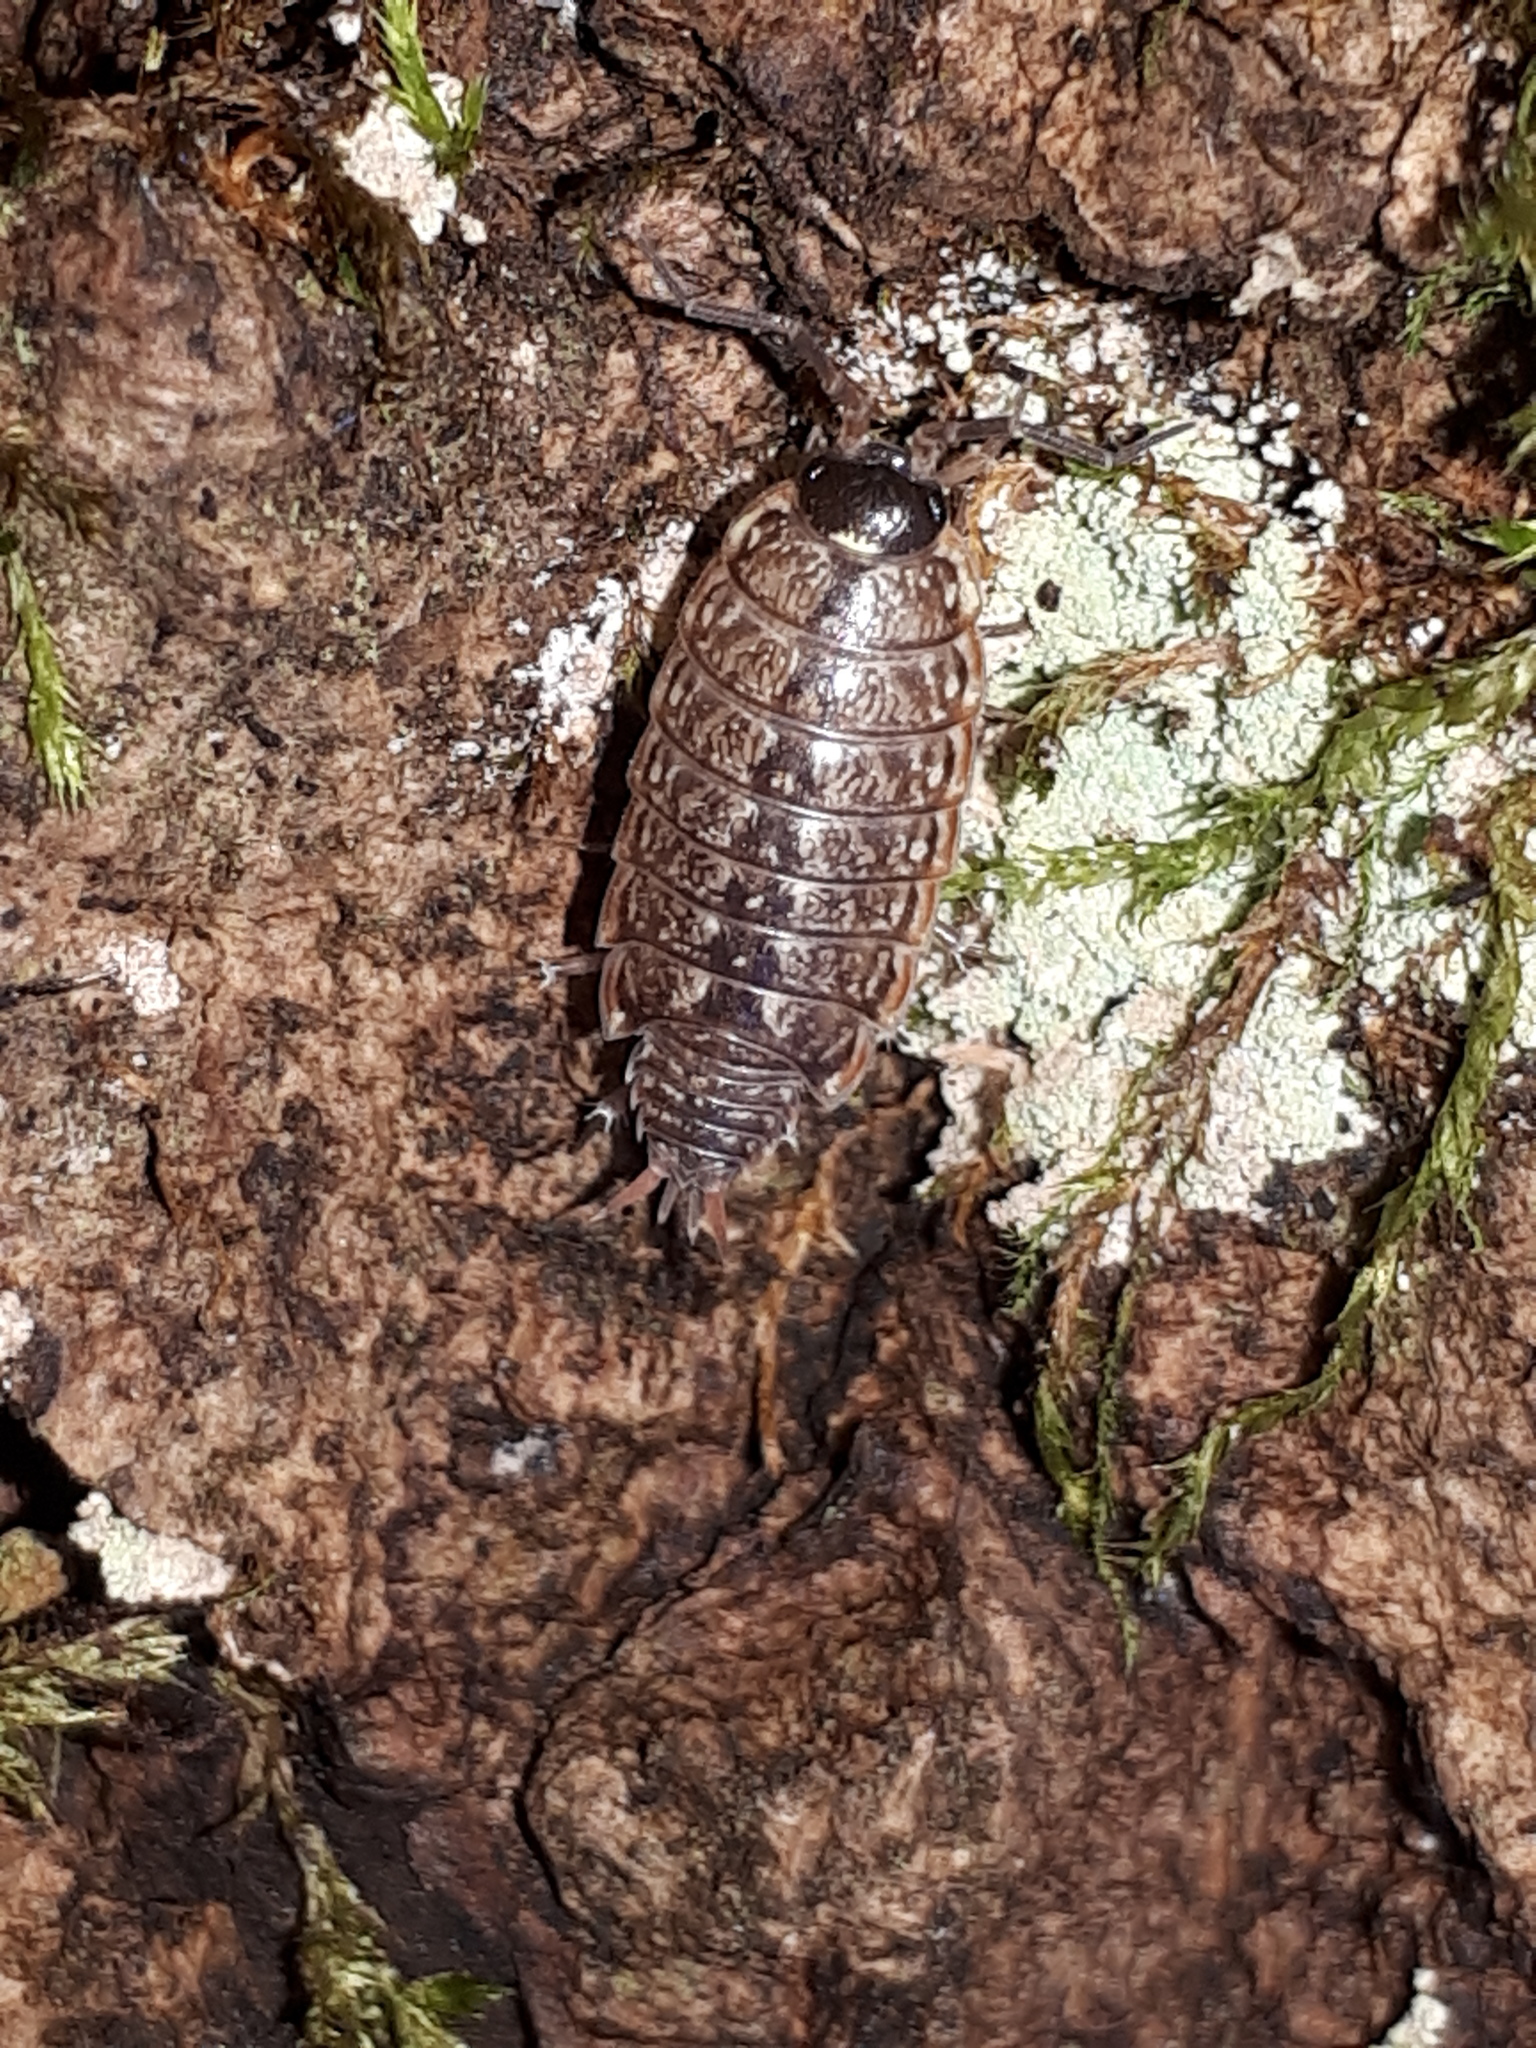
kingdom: Animalia
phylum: Arthropoda
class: Malacostraca
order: Isopoda
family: Philosciidae
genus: Philoscia
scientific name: Philoscia muscorum
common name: Common striped woodlouse
